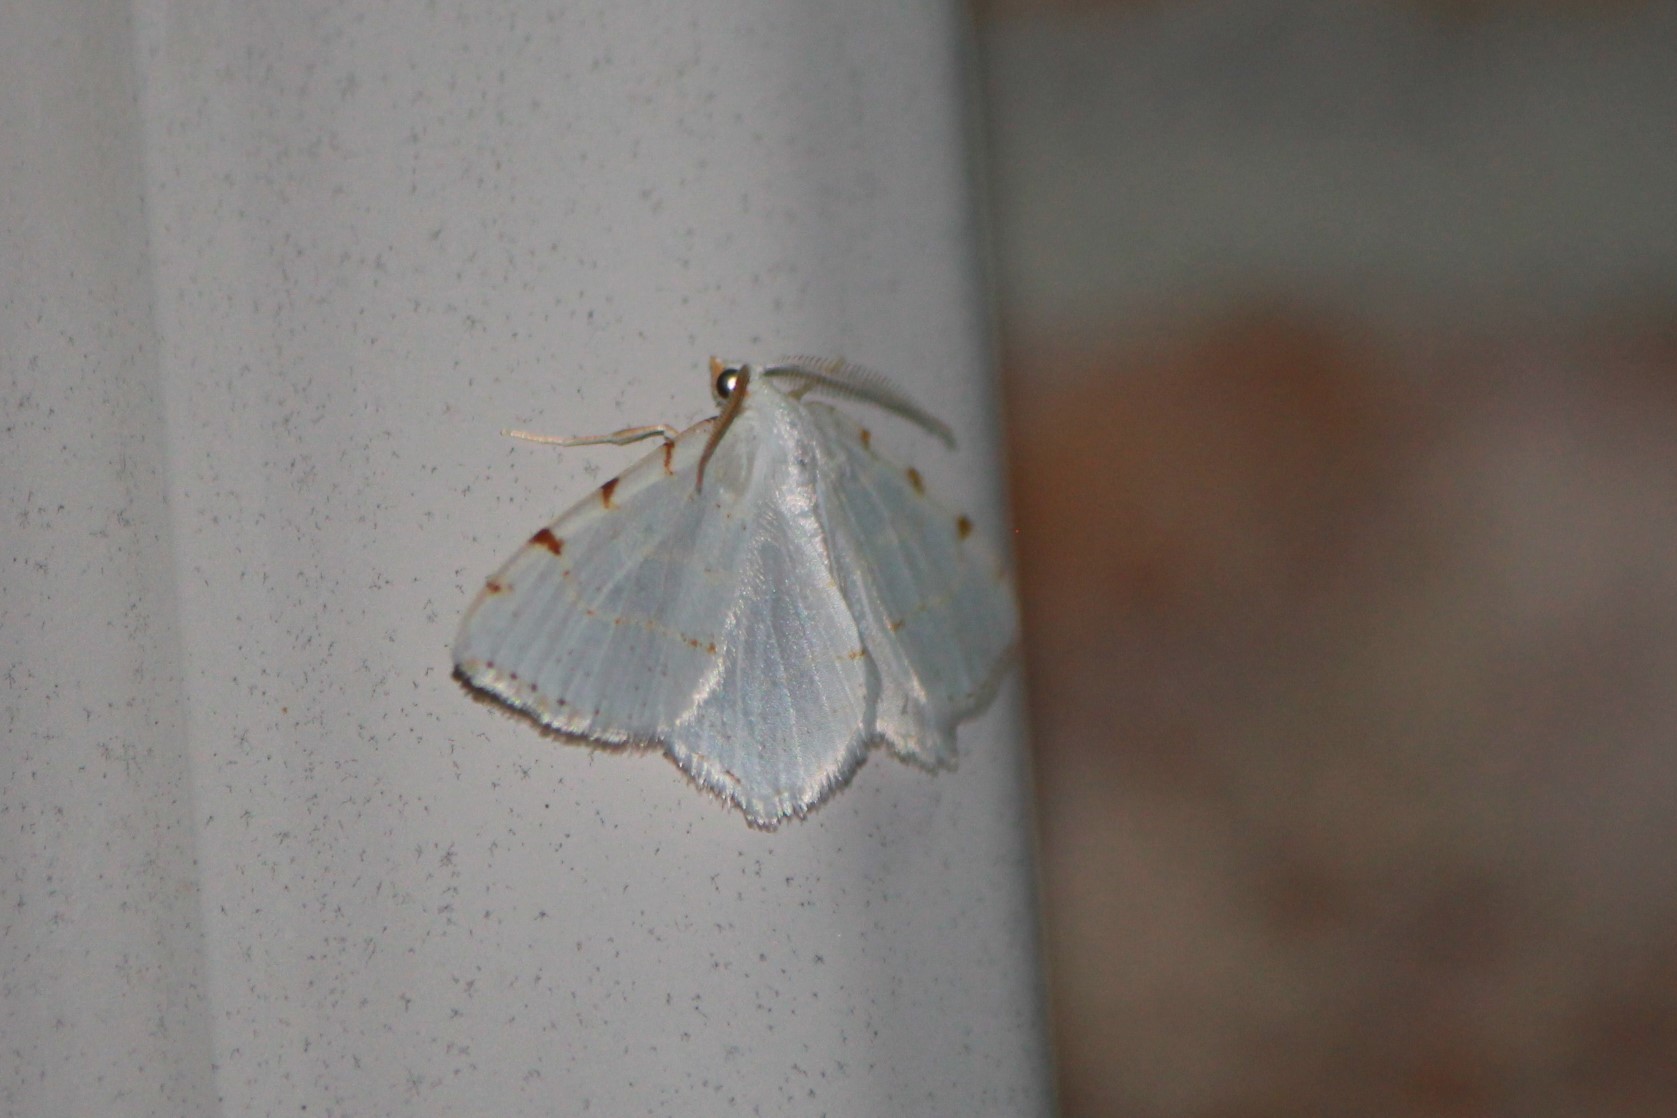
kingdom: Animalia
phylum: Arthropoda
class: Insecta
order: Lepidoptera
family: Geometridae
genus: Macaria
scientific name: Macaria pustularia
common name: Lesser maple spanworm moth
